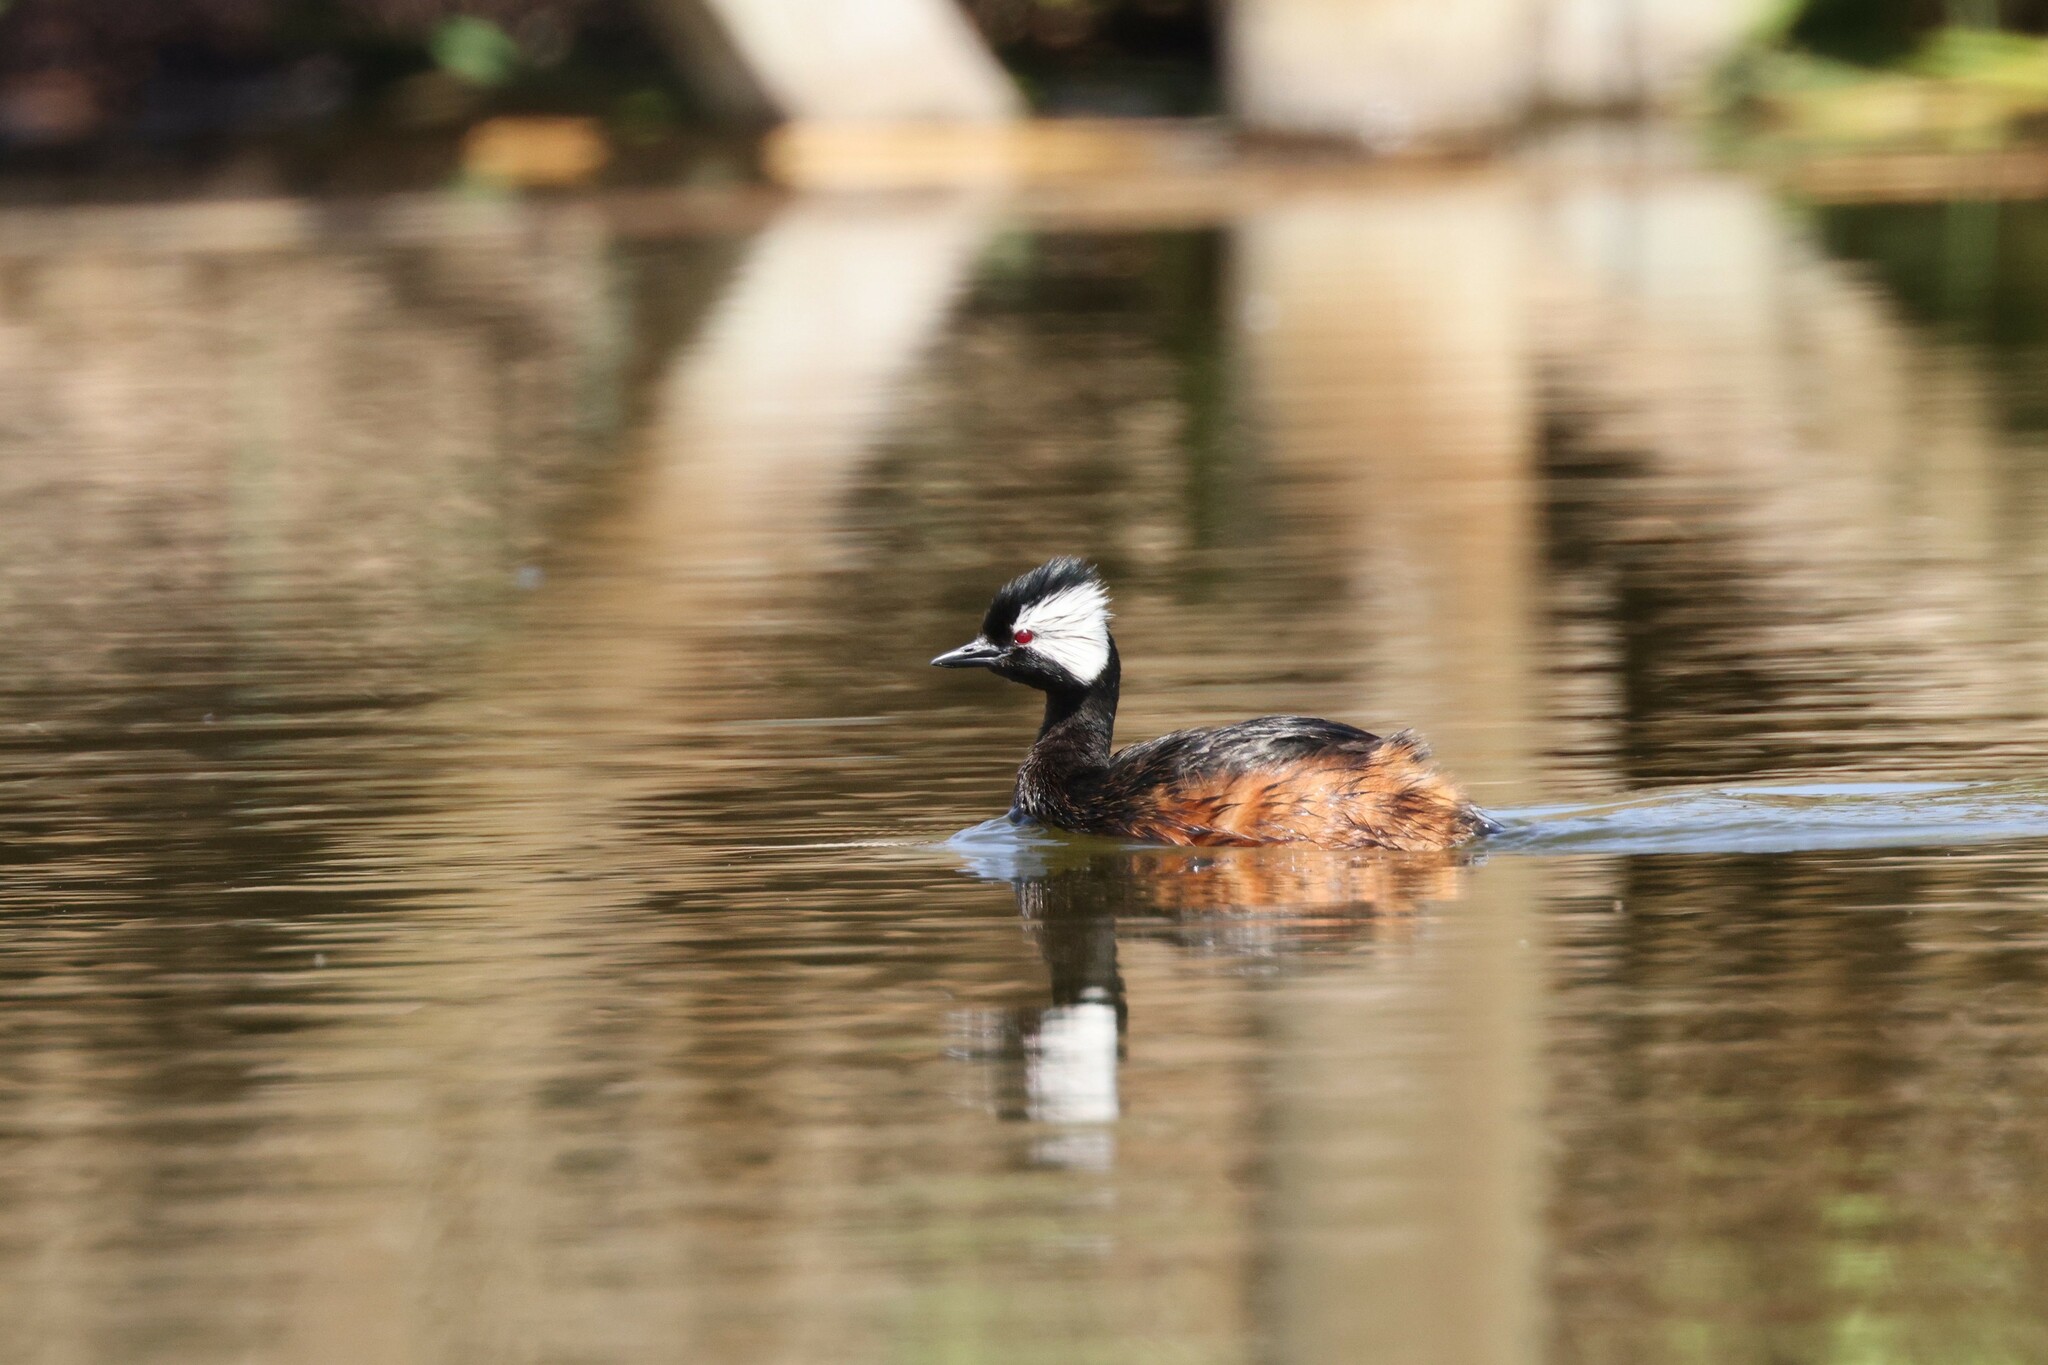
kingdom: Animalia
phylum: Chordata
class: Aves
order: Podicipediformes
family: Podicipedidae
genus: Rollandia
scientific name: Rollandia rolland
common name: White-tufted grebe
